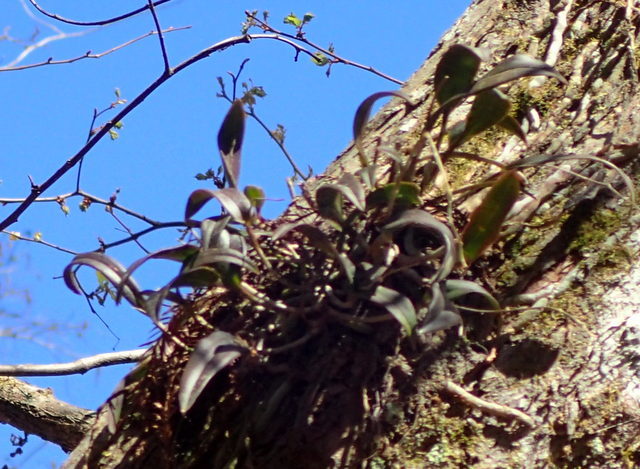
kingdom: Plantae
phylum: Tracheophyta
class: Liliopsida
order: Asparagales
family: Orchidaceae
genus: Epidendrum
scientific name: Epidendrum conopseum
